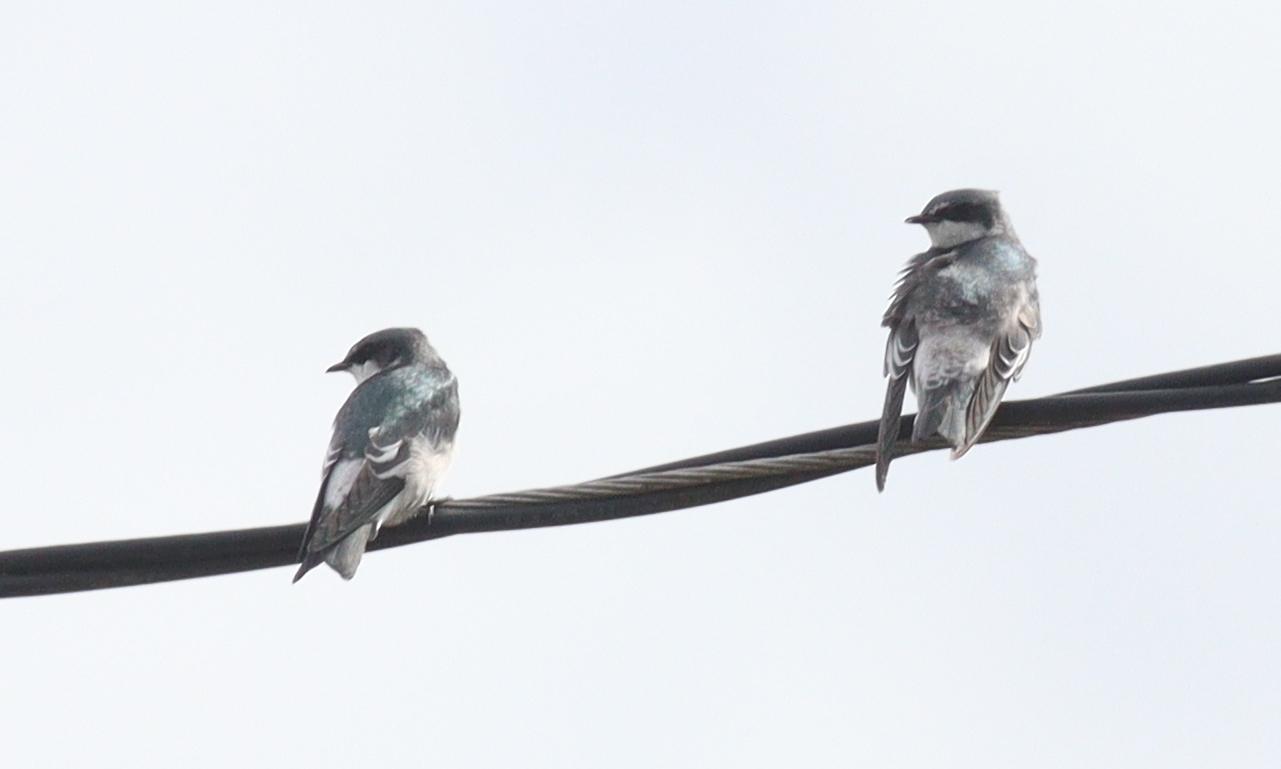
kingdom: Animalia
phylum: Chordata
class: Aves
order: Passeriformes
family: Hirundinidae
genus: Tachycineta
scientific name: Tachycineta albilinea
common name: Mangrove swallow
